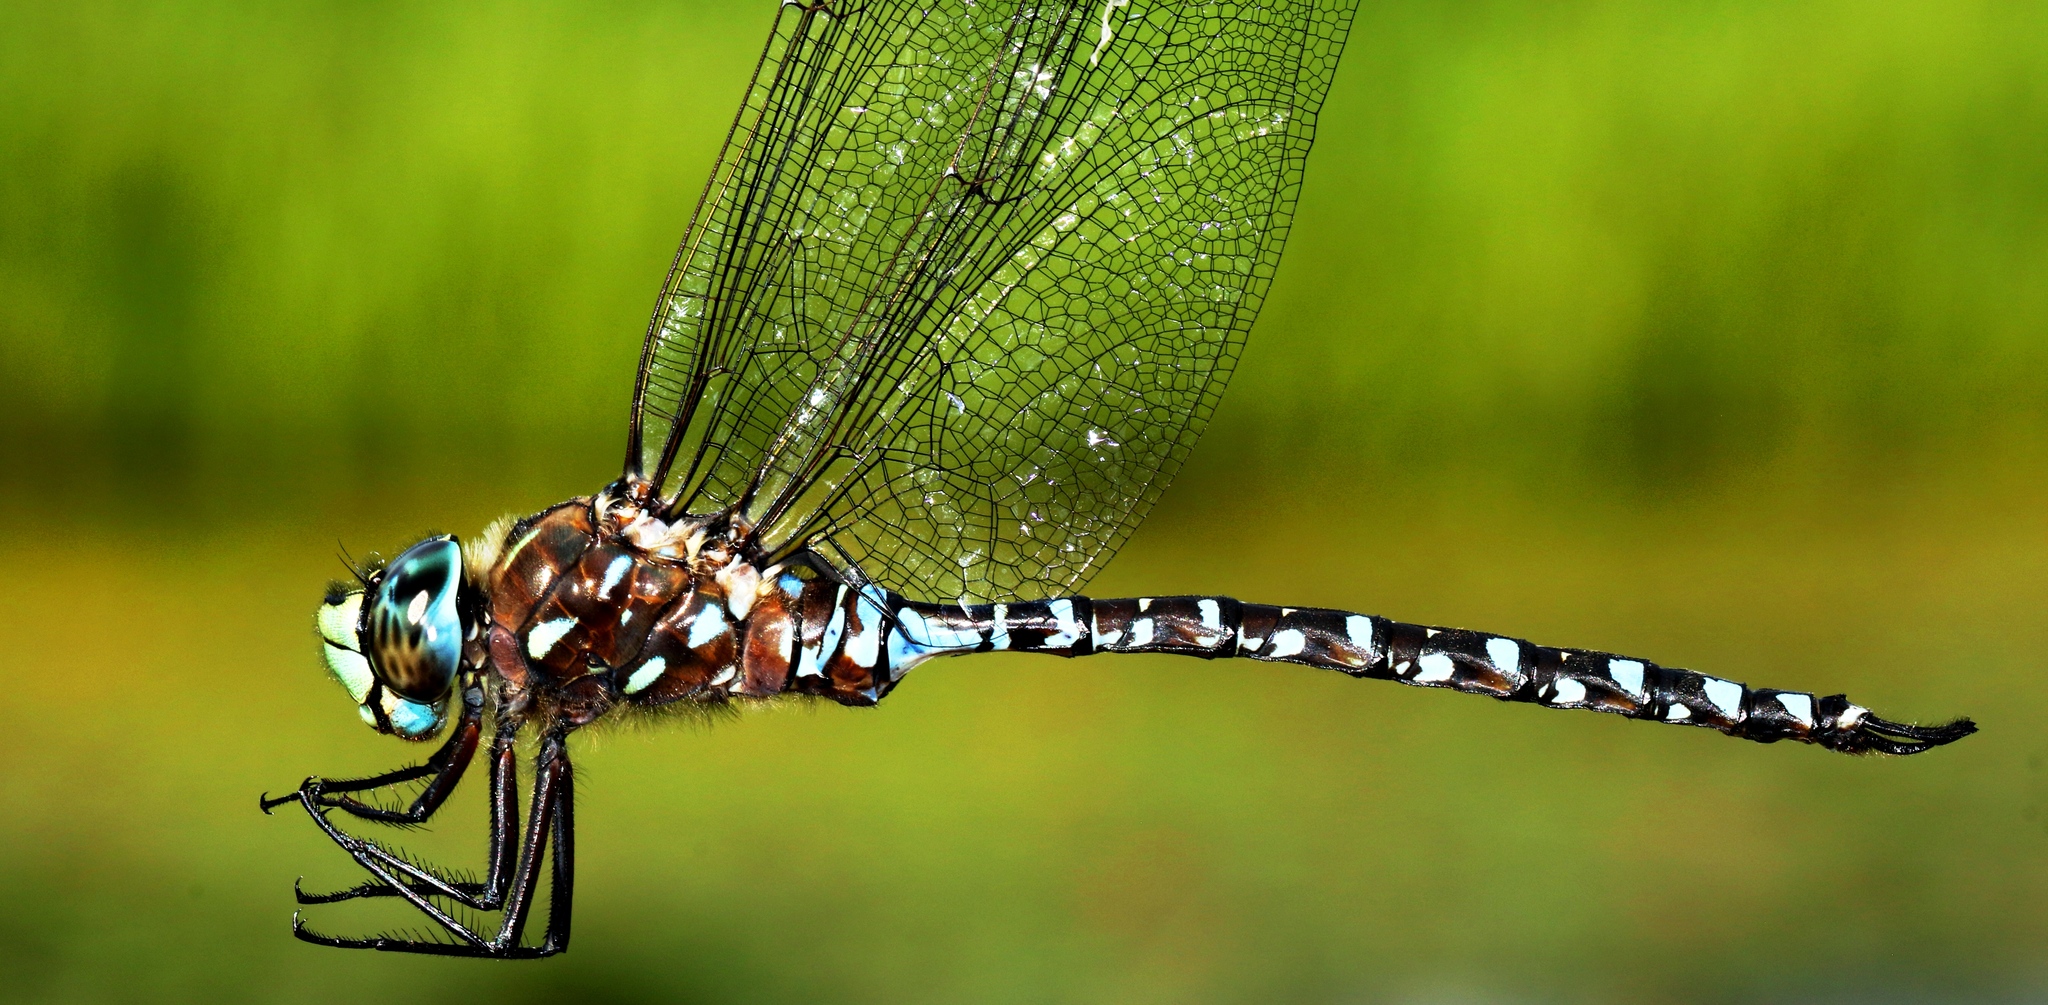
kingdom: Animalia
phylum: Arthropoda
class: Insecta
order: Odonata
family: Aeshnidae
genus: Aeshna
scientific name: Aeshna interrupta
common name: Variable darner
